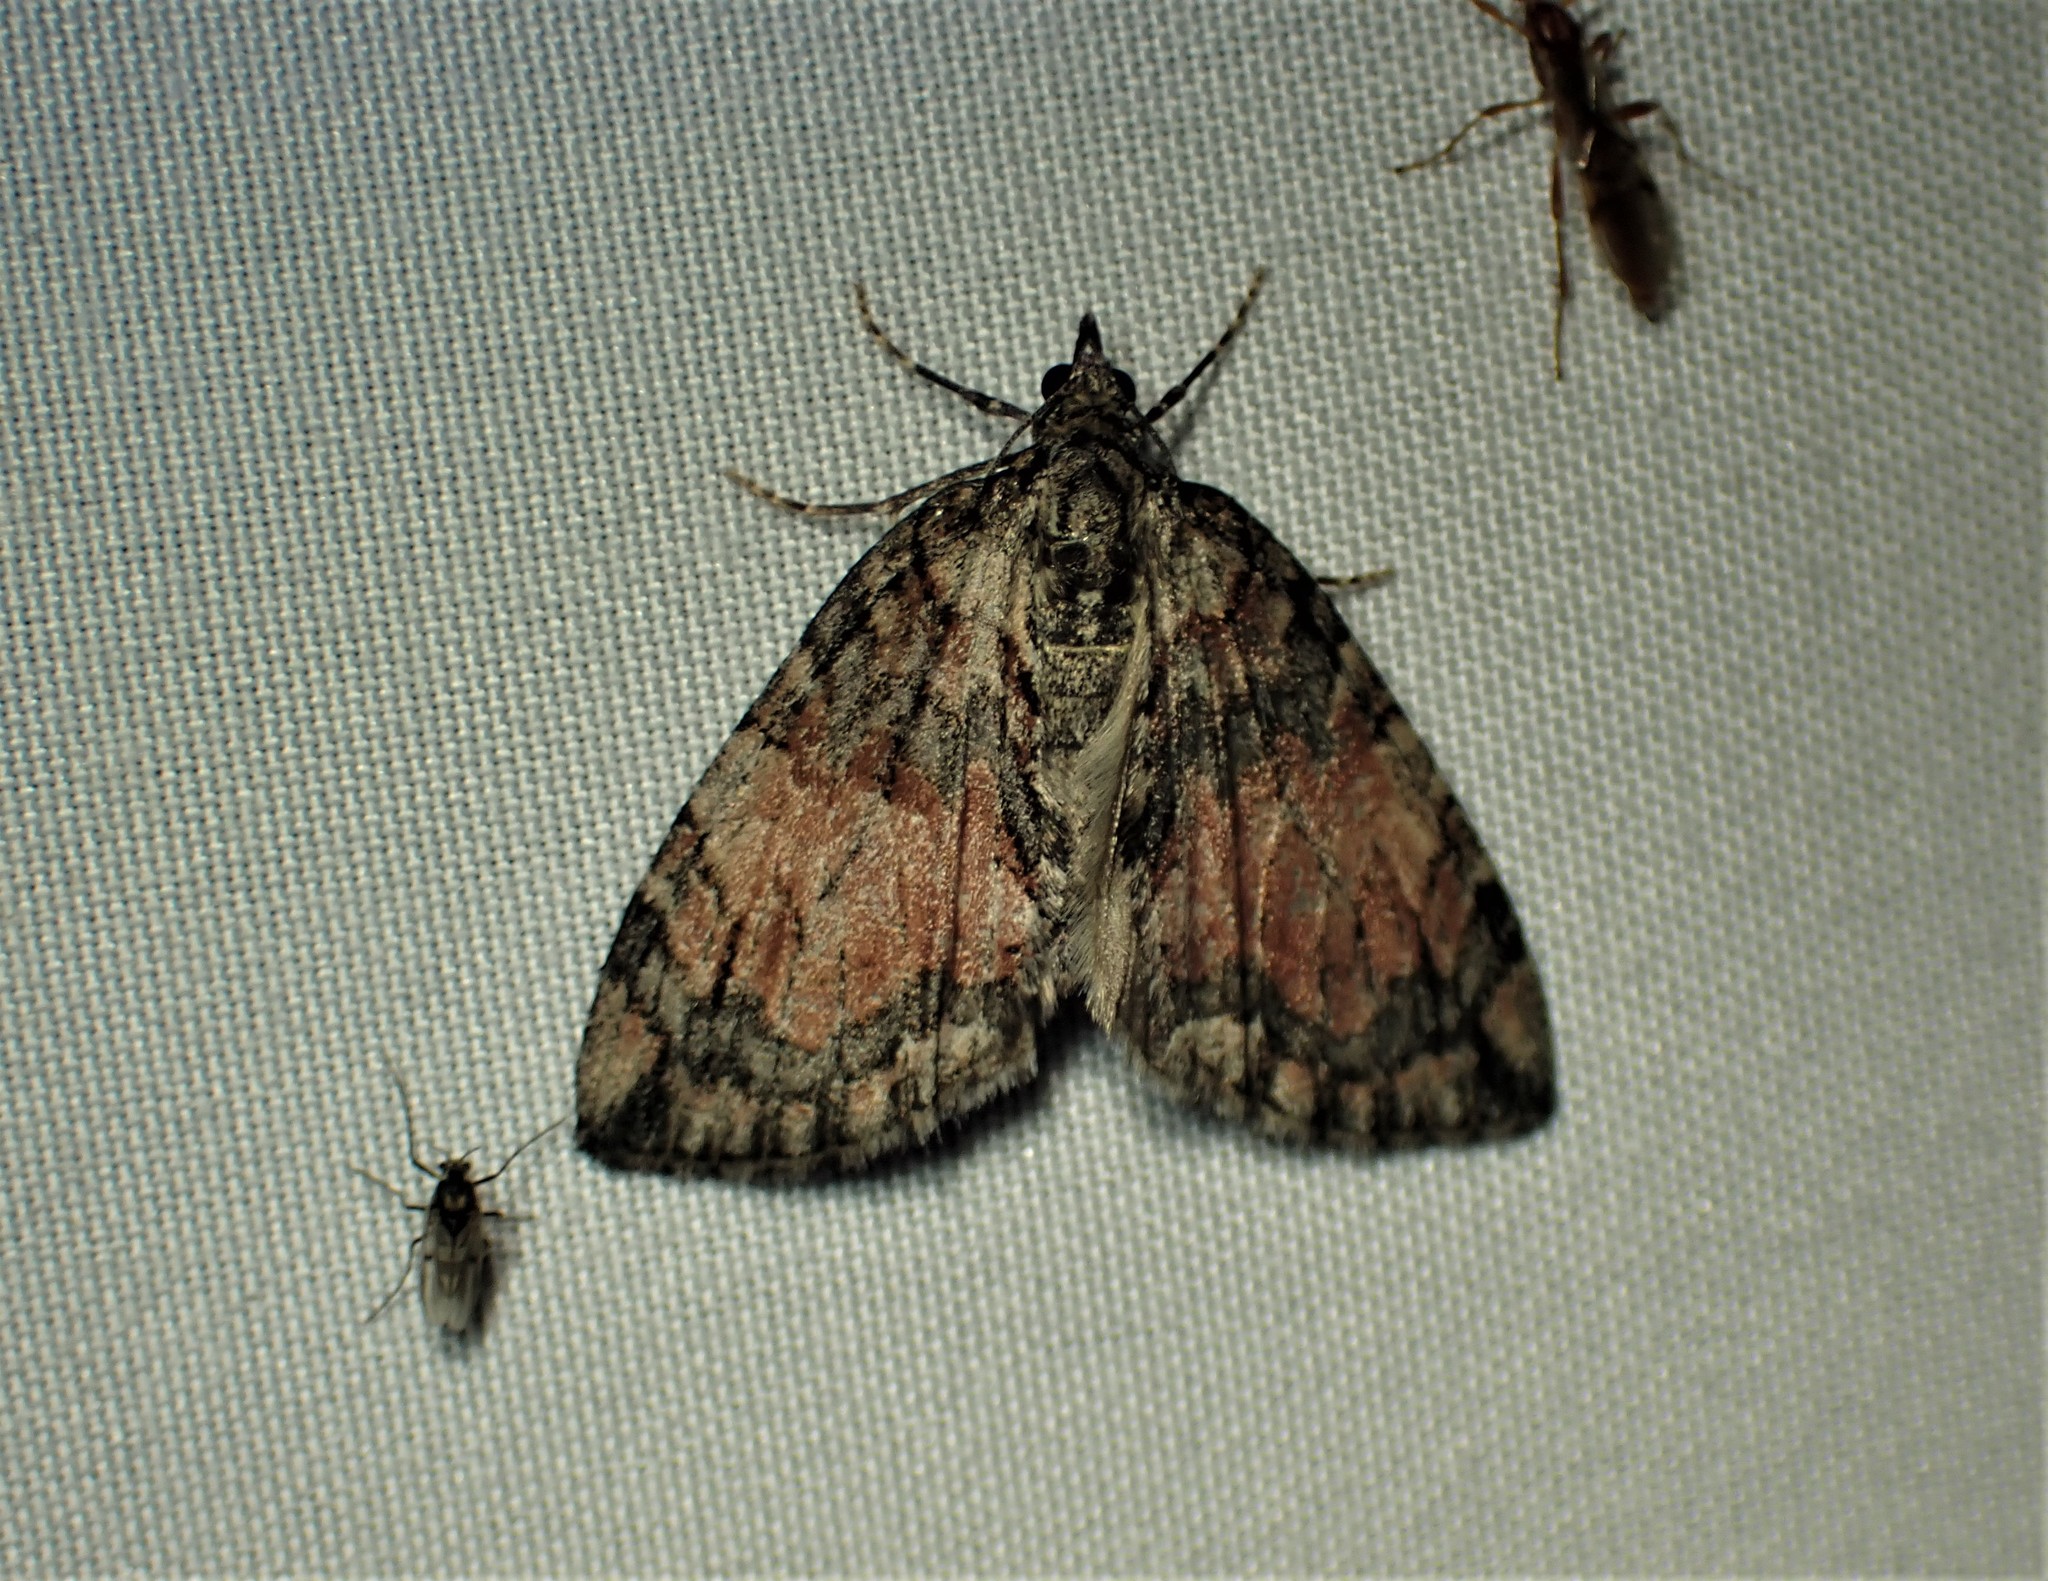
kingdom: Animalia
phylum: Arthropoda
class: Insecta
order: Lepidoptera
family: Geometridae
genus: Hydriomena
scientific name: Hydriomena perfracta
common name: Shattered hydriomena moth
